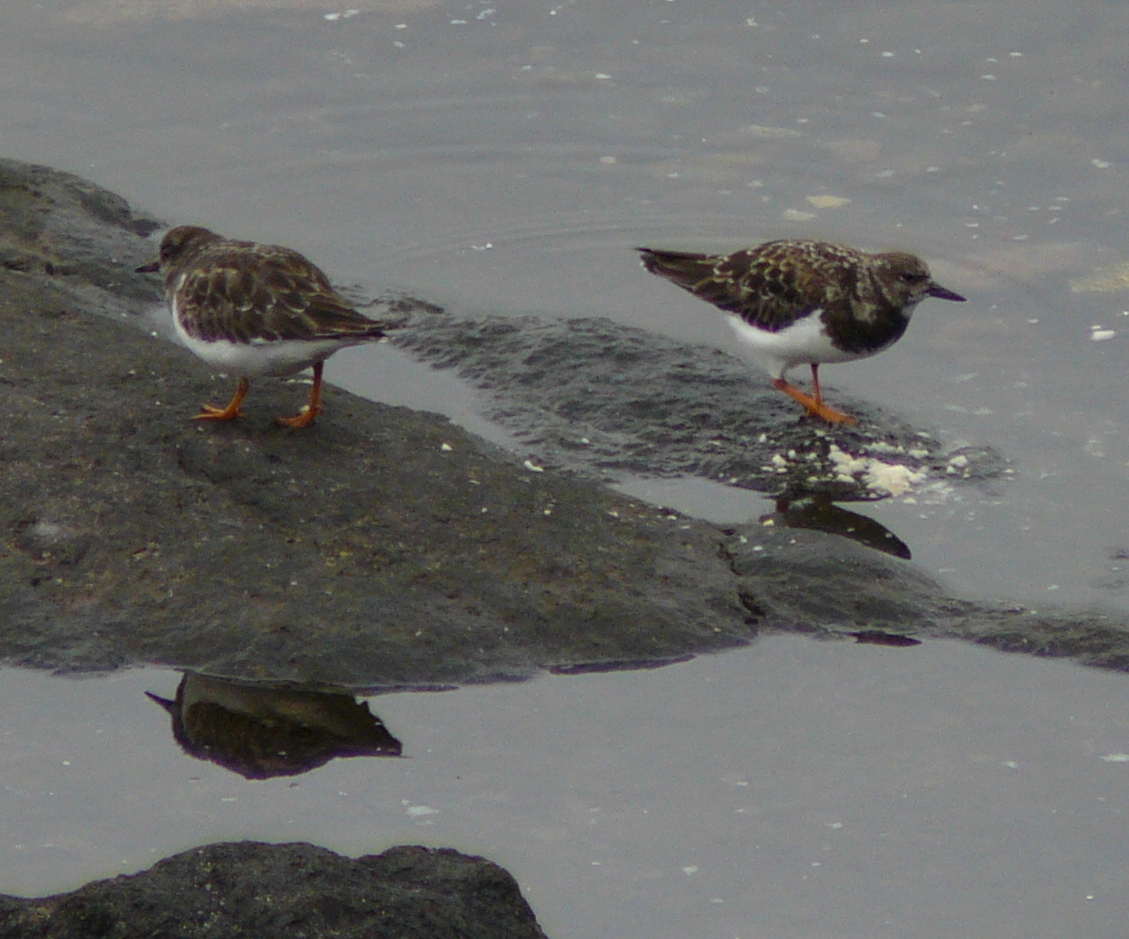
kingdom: Animalia
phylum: Chordata
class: Aves
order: Charadriiformes
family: Scolopacidae
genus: Arenaria
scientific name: Arenaria interpres
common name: Ruddy turnstone
